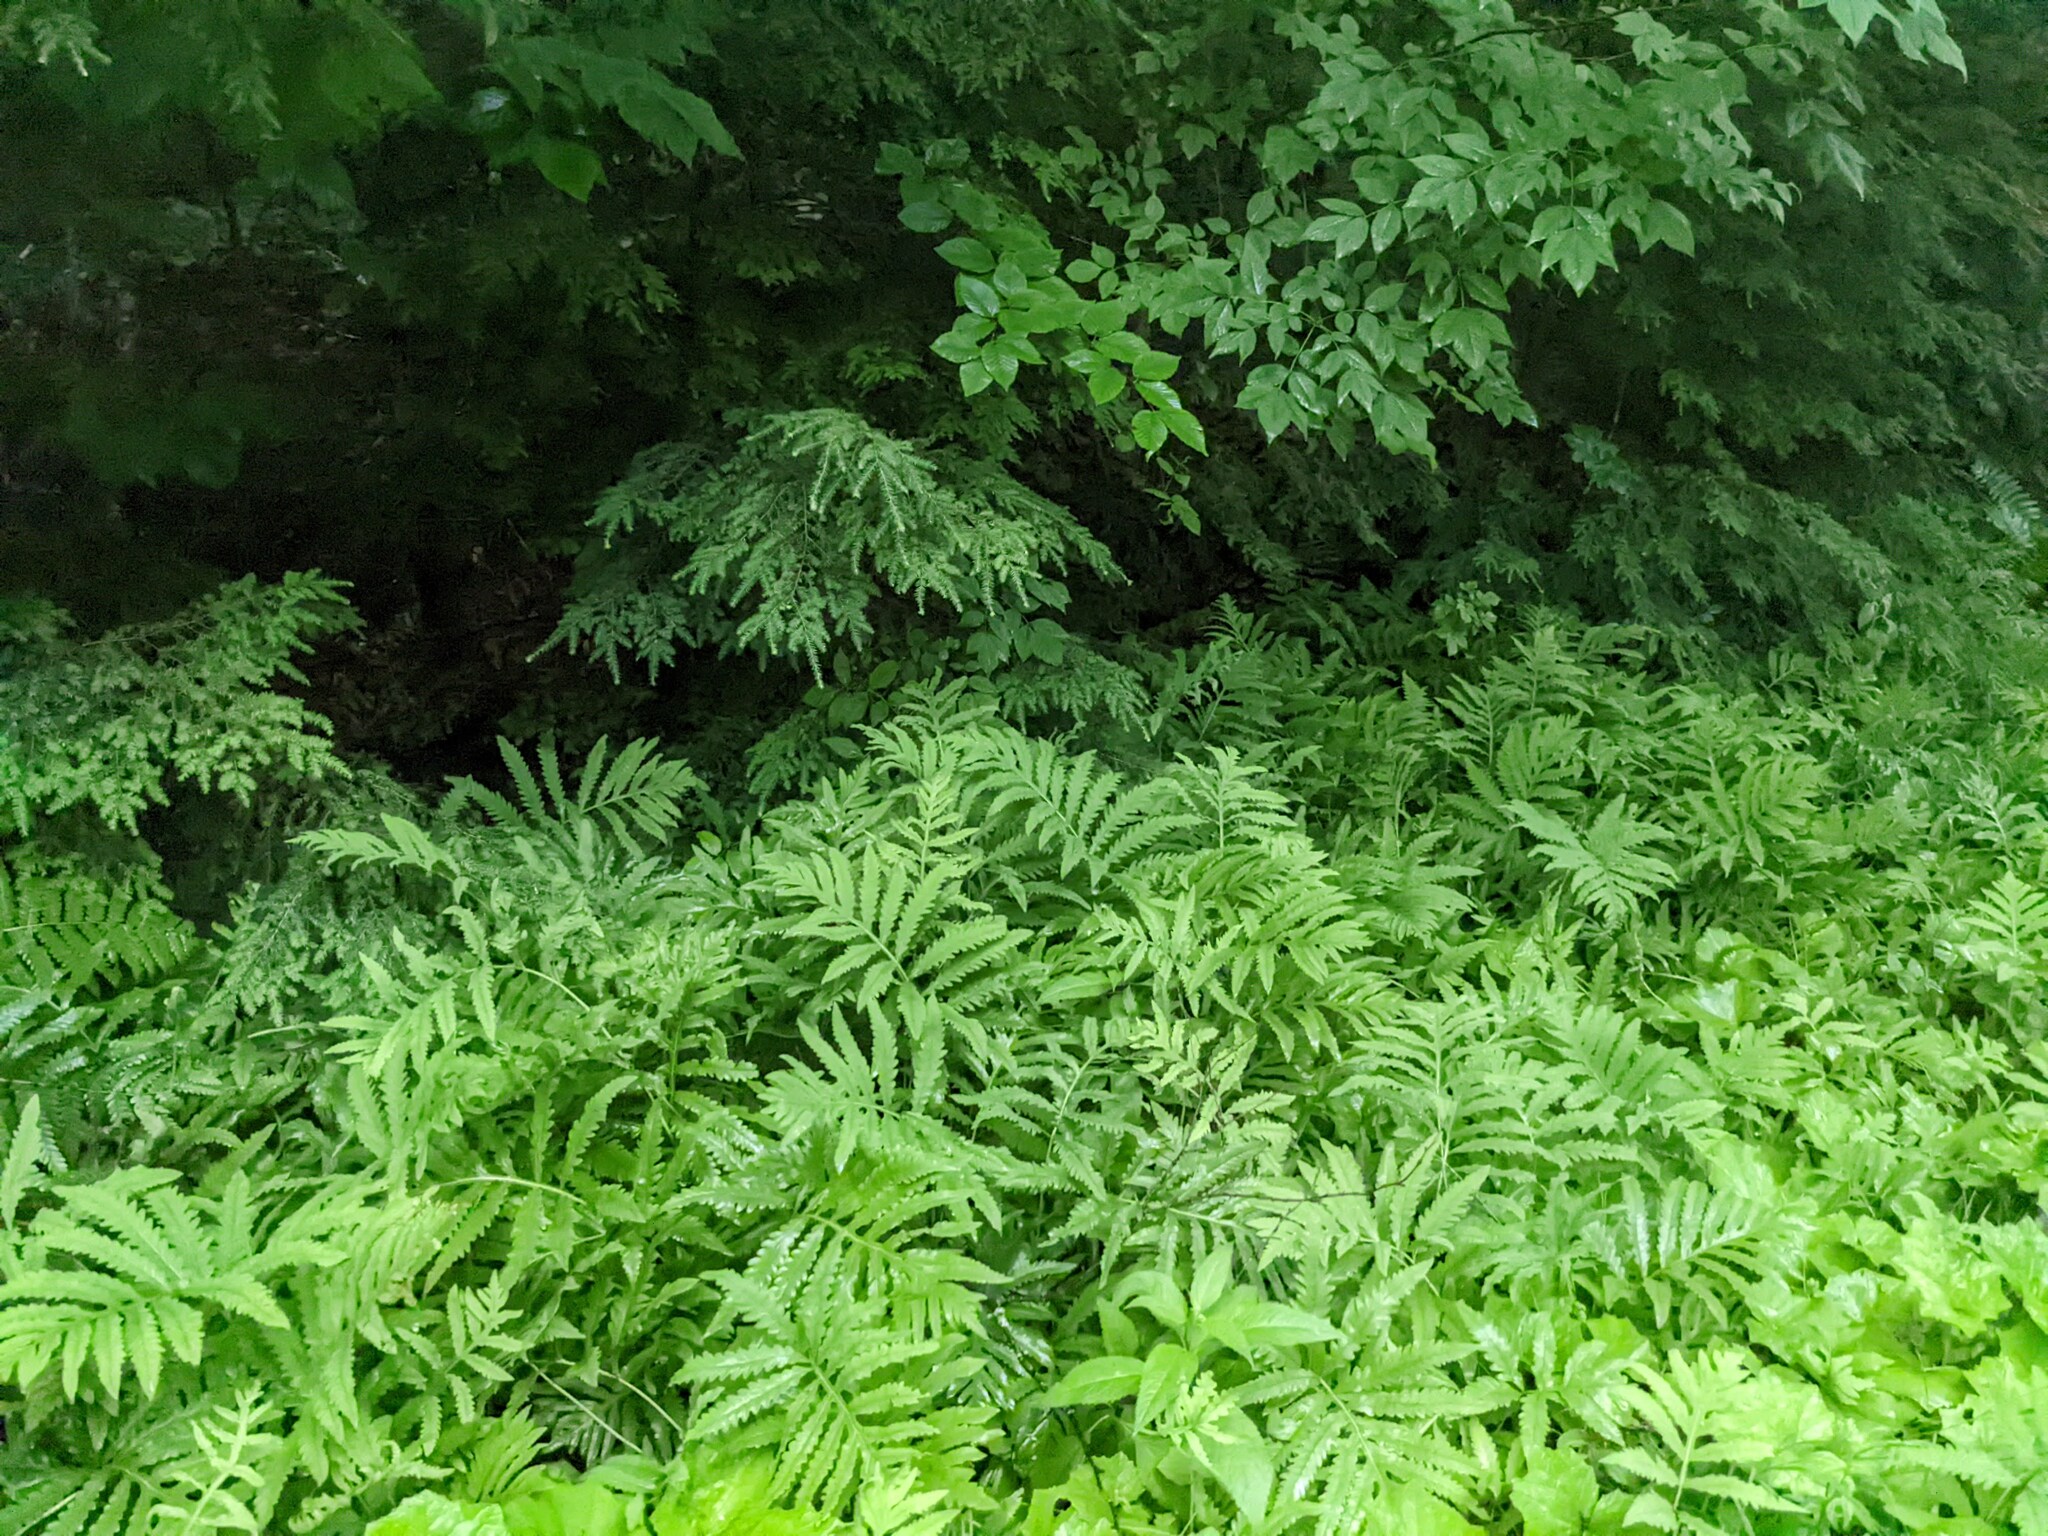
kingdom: Plantae
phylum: Tracheophyta
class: Polypodiopsida
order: Polypodiales
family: Onocleaceae
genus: Onoclea
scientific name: Onoclea sensibilis
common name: Sensitive fern
